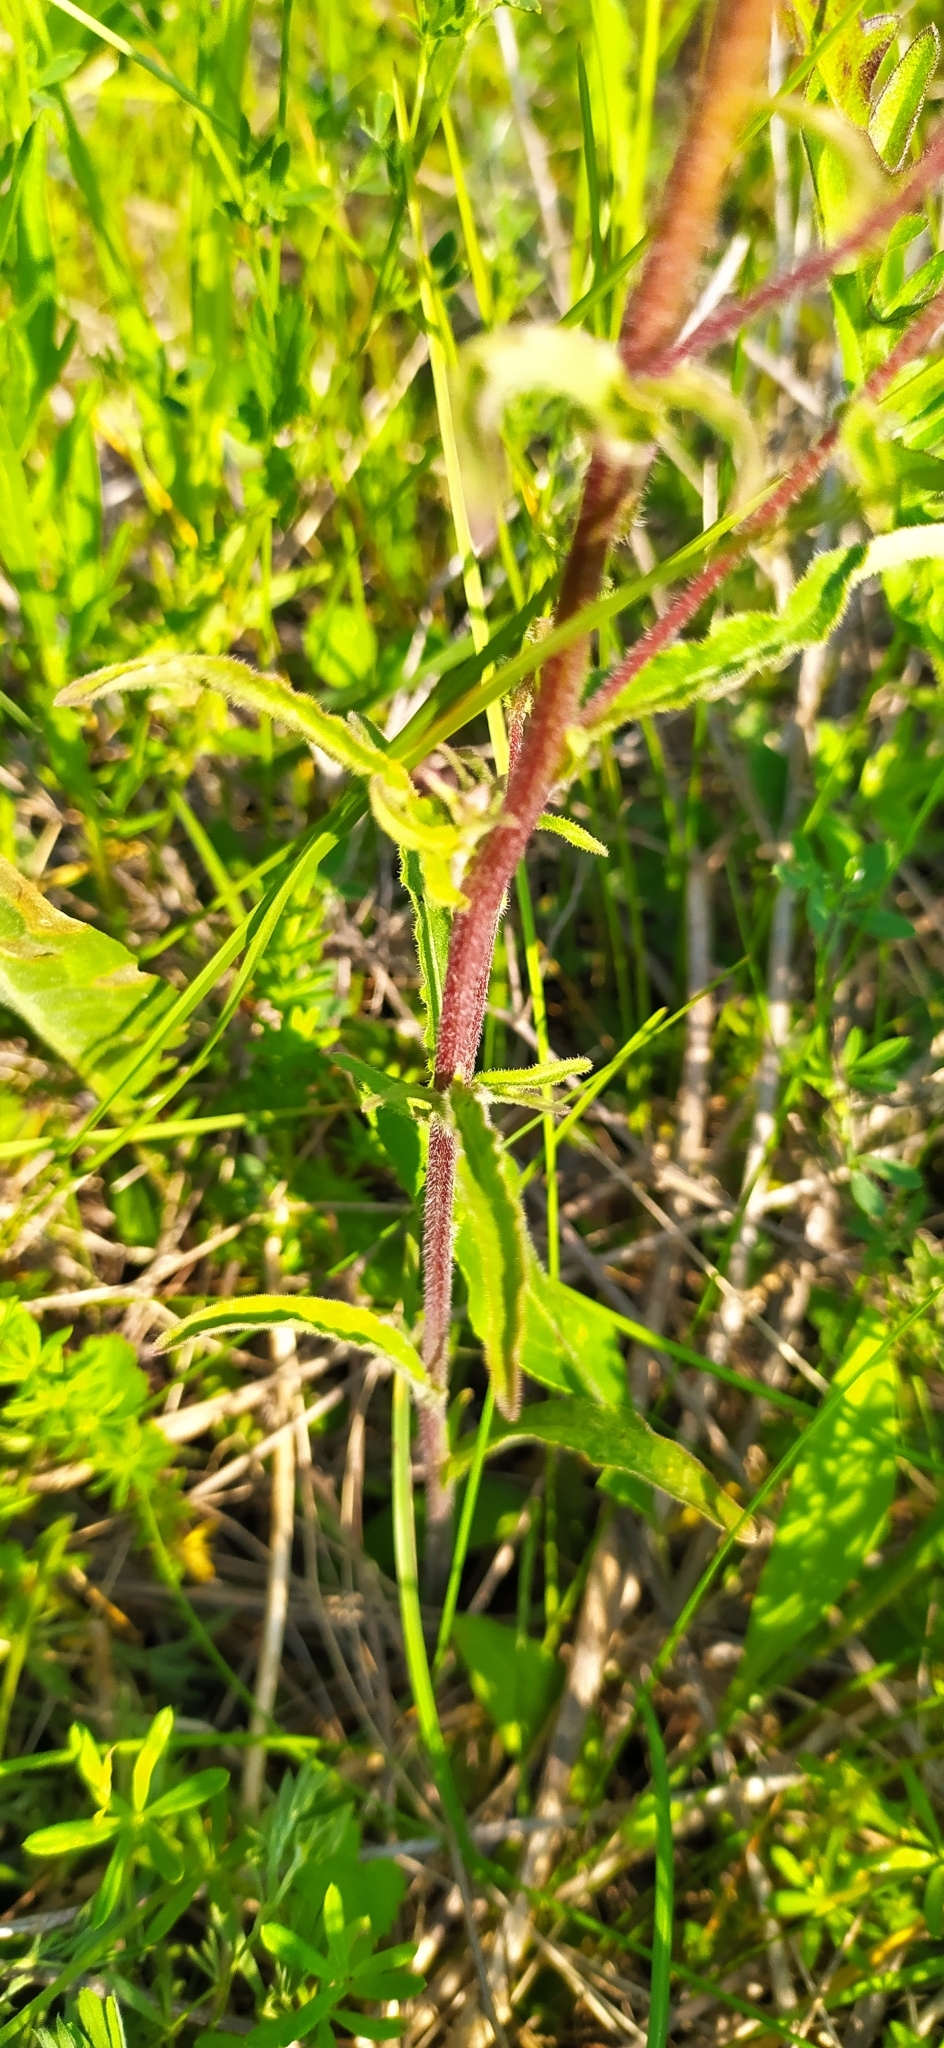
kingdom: Plantae
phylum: Tracheophyta
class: Magnoliopsida
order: Asterales
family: Campanulaceae
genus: Campanula
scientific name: Campanula sibirica
